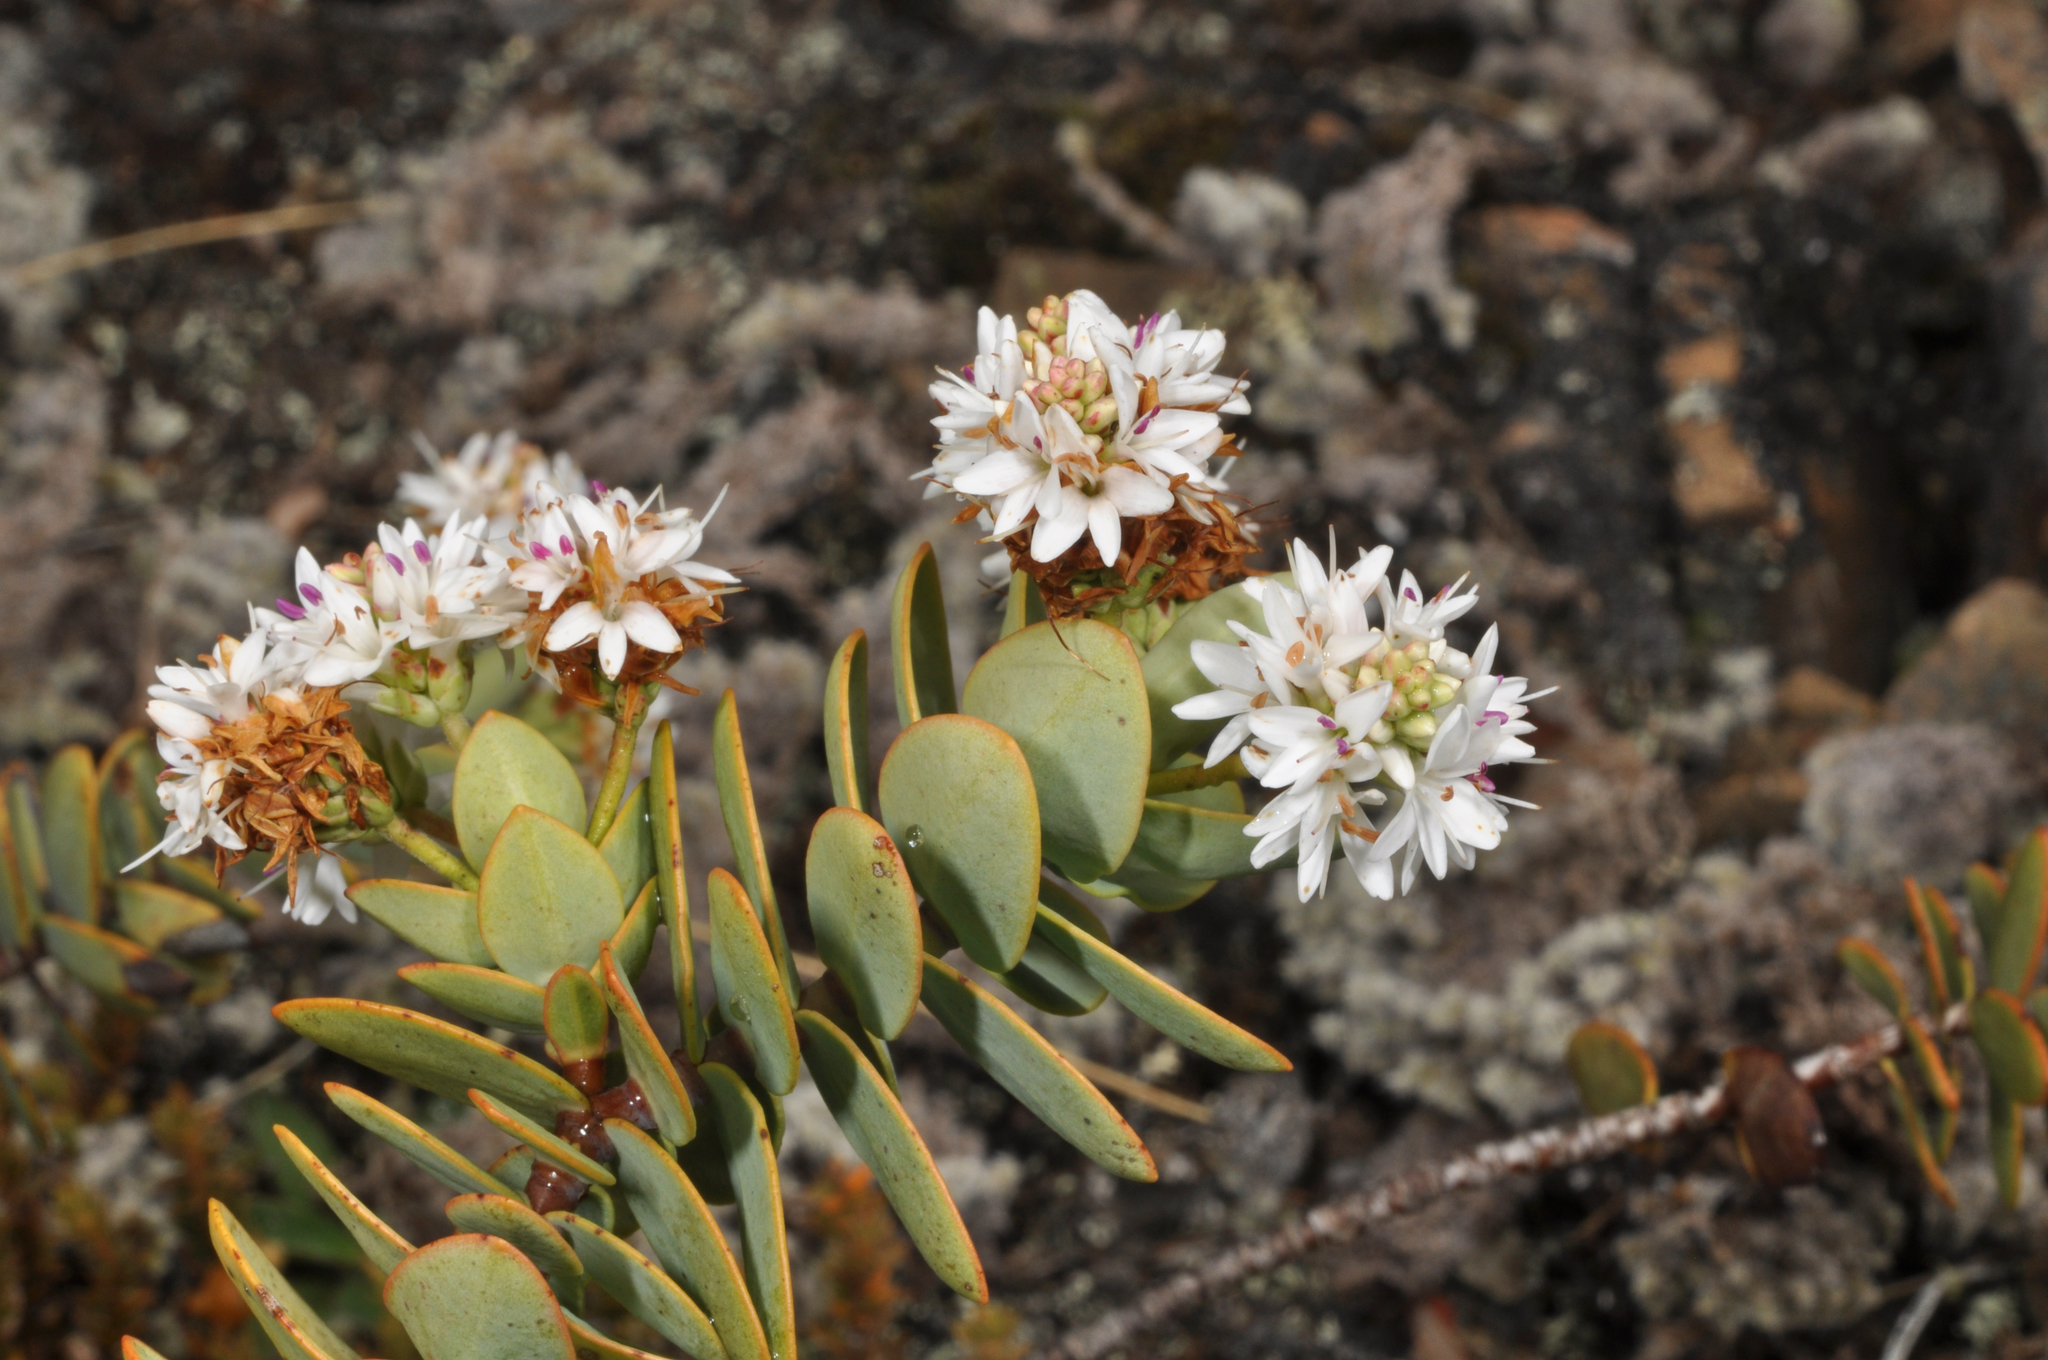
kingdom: Plantae
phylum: Tracheophyta
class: Magnoliopsida
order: Lamiales
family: Plantaginaceae
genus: Veronica
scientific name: Veronica amplexicaulis
